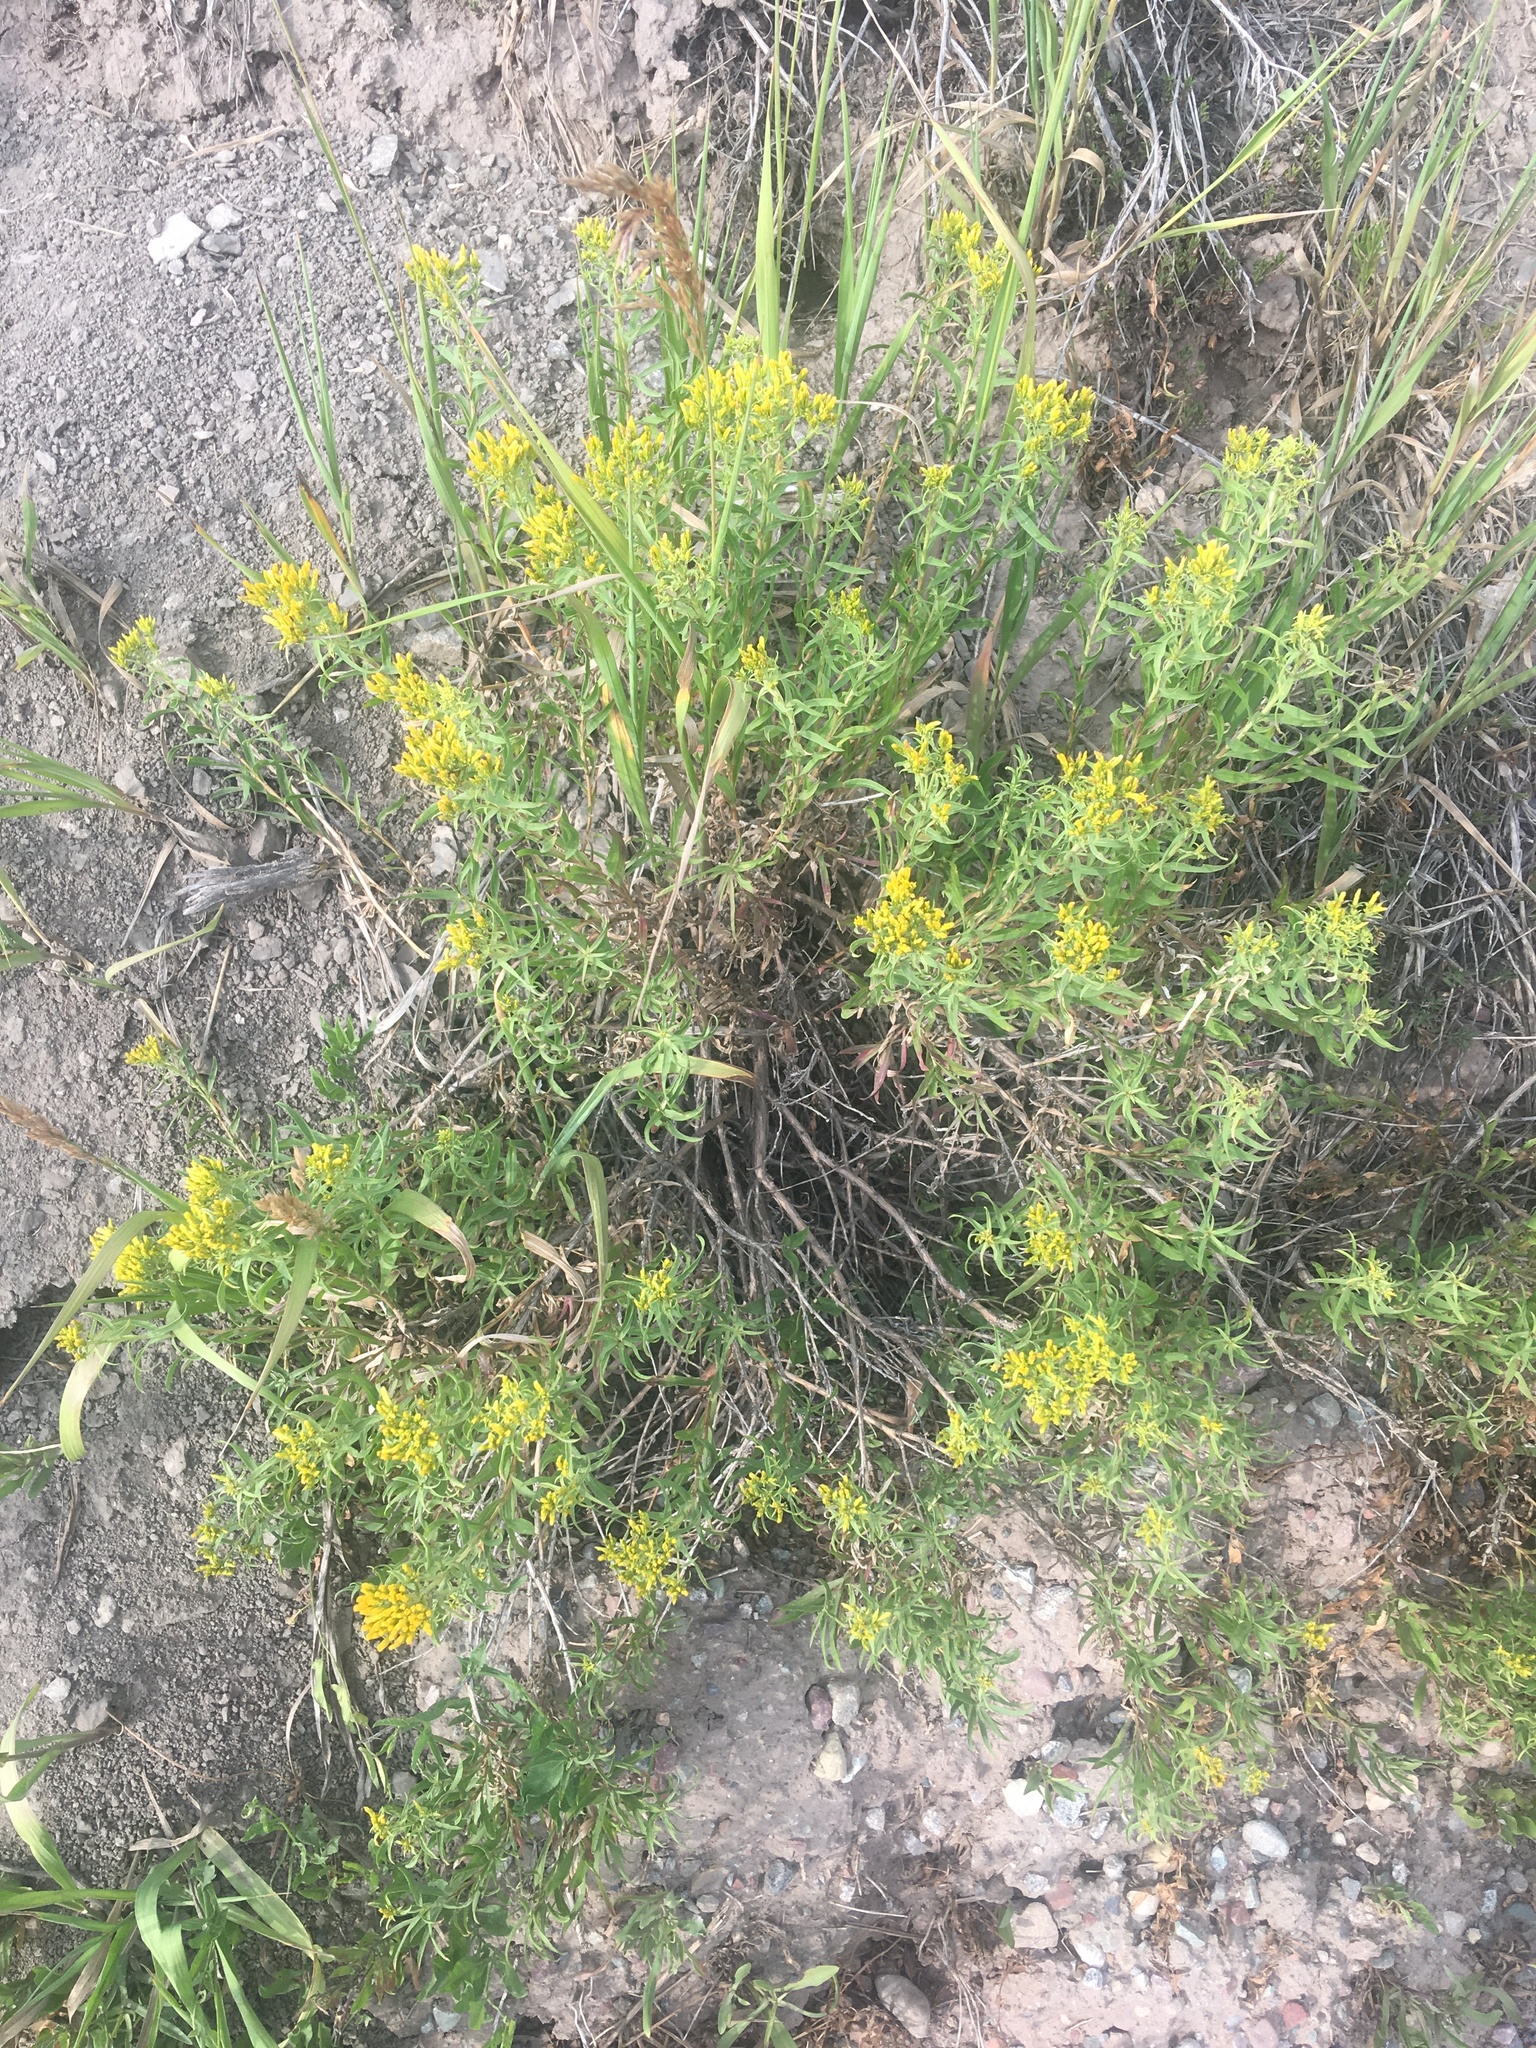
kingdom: Plantae
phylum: Tracheophyta
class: Magnoliopsida
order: Asterales
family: Asteraceae
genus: Chrysothamnus
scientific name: Chrysothamnus viscidiflorus
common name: Yellow rabbitbrush
